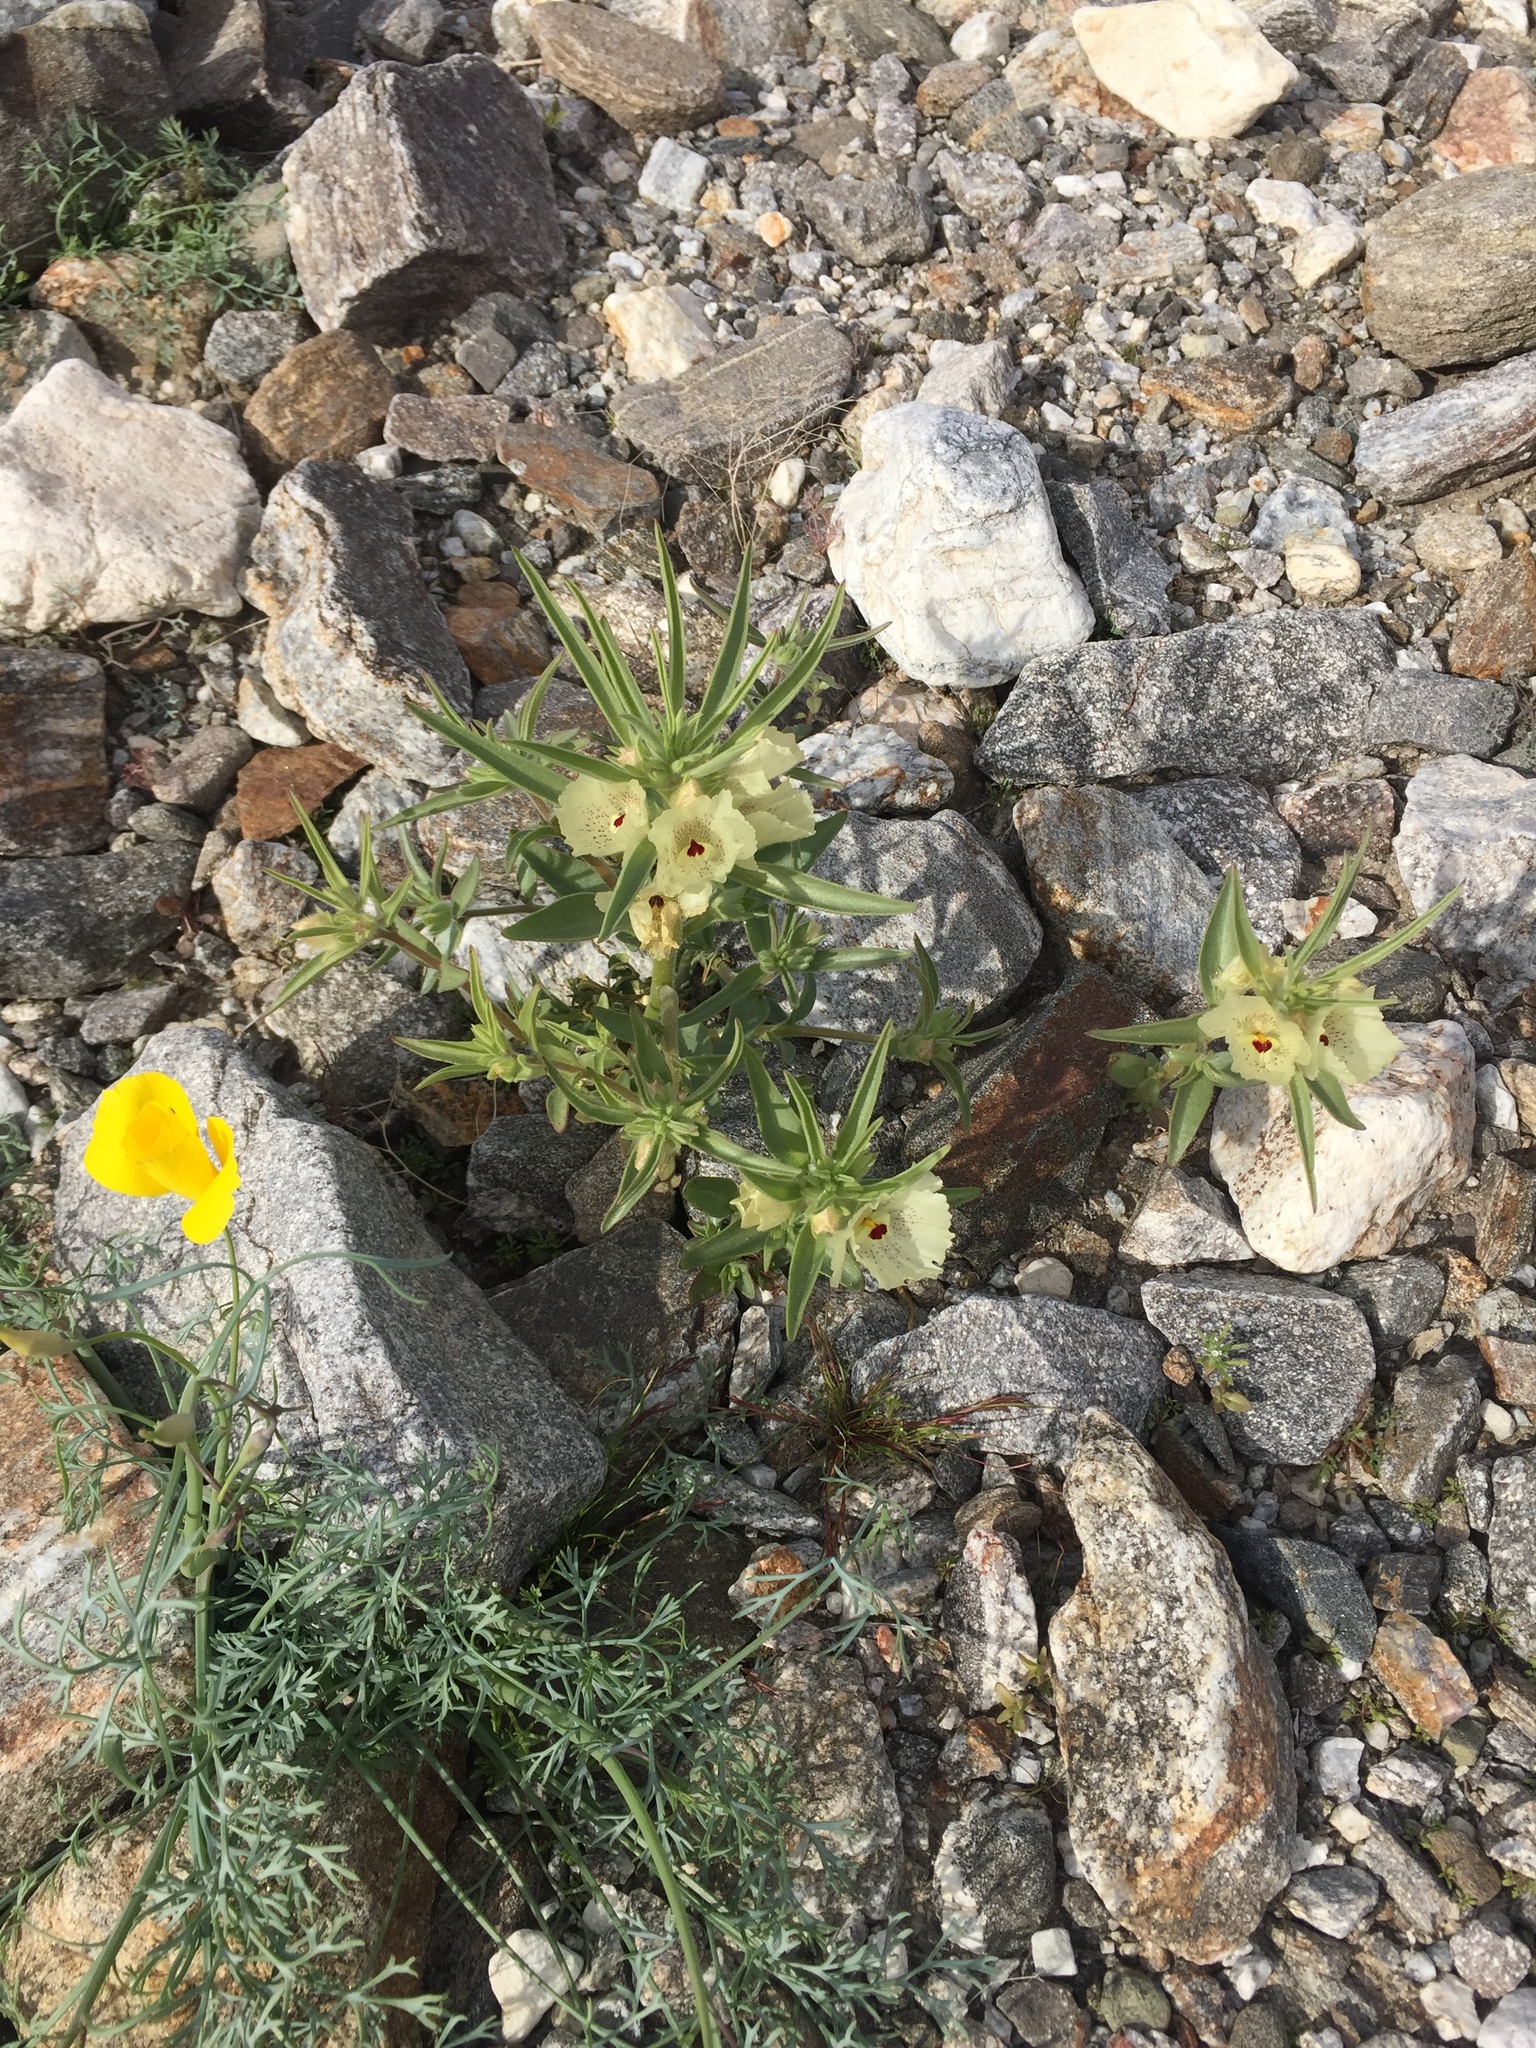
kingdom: Plantae
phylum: Tracheophyta
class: Magnoliopsida
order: Lamiales
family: Plantaginaceae
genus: Mohavea
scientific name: Mohavea confertiflora
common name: Ghost flower
